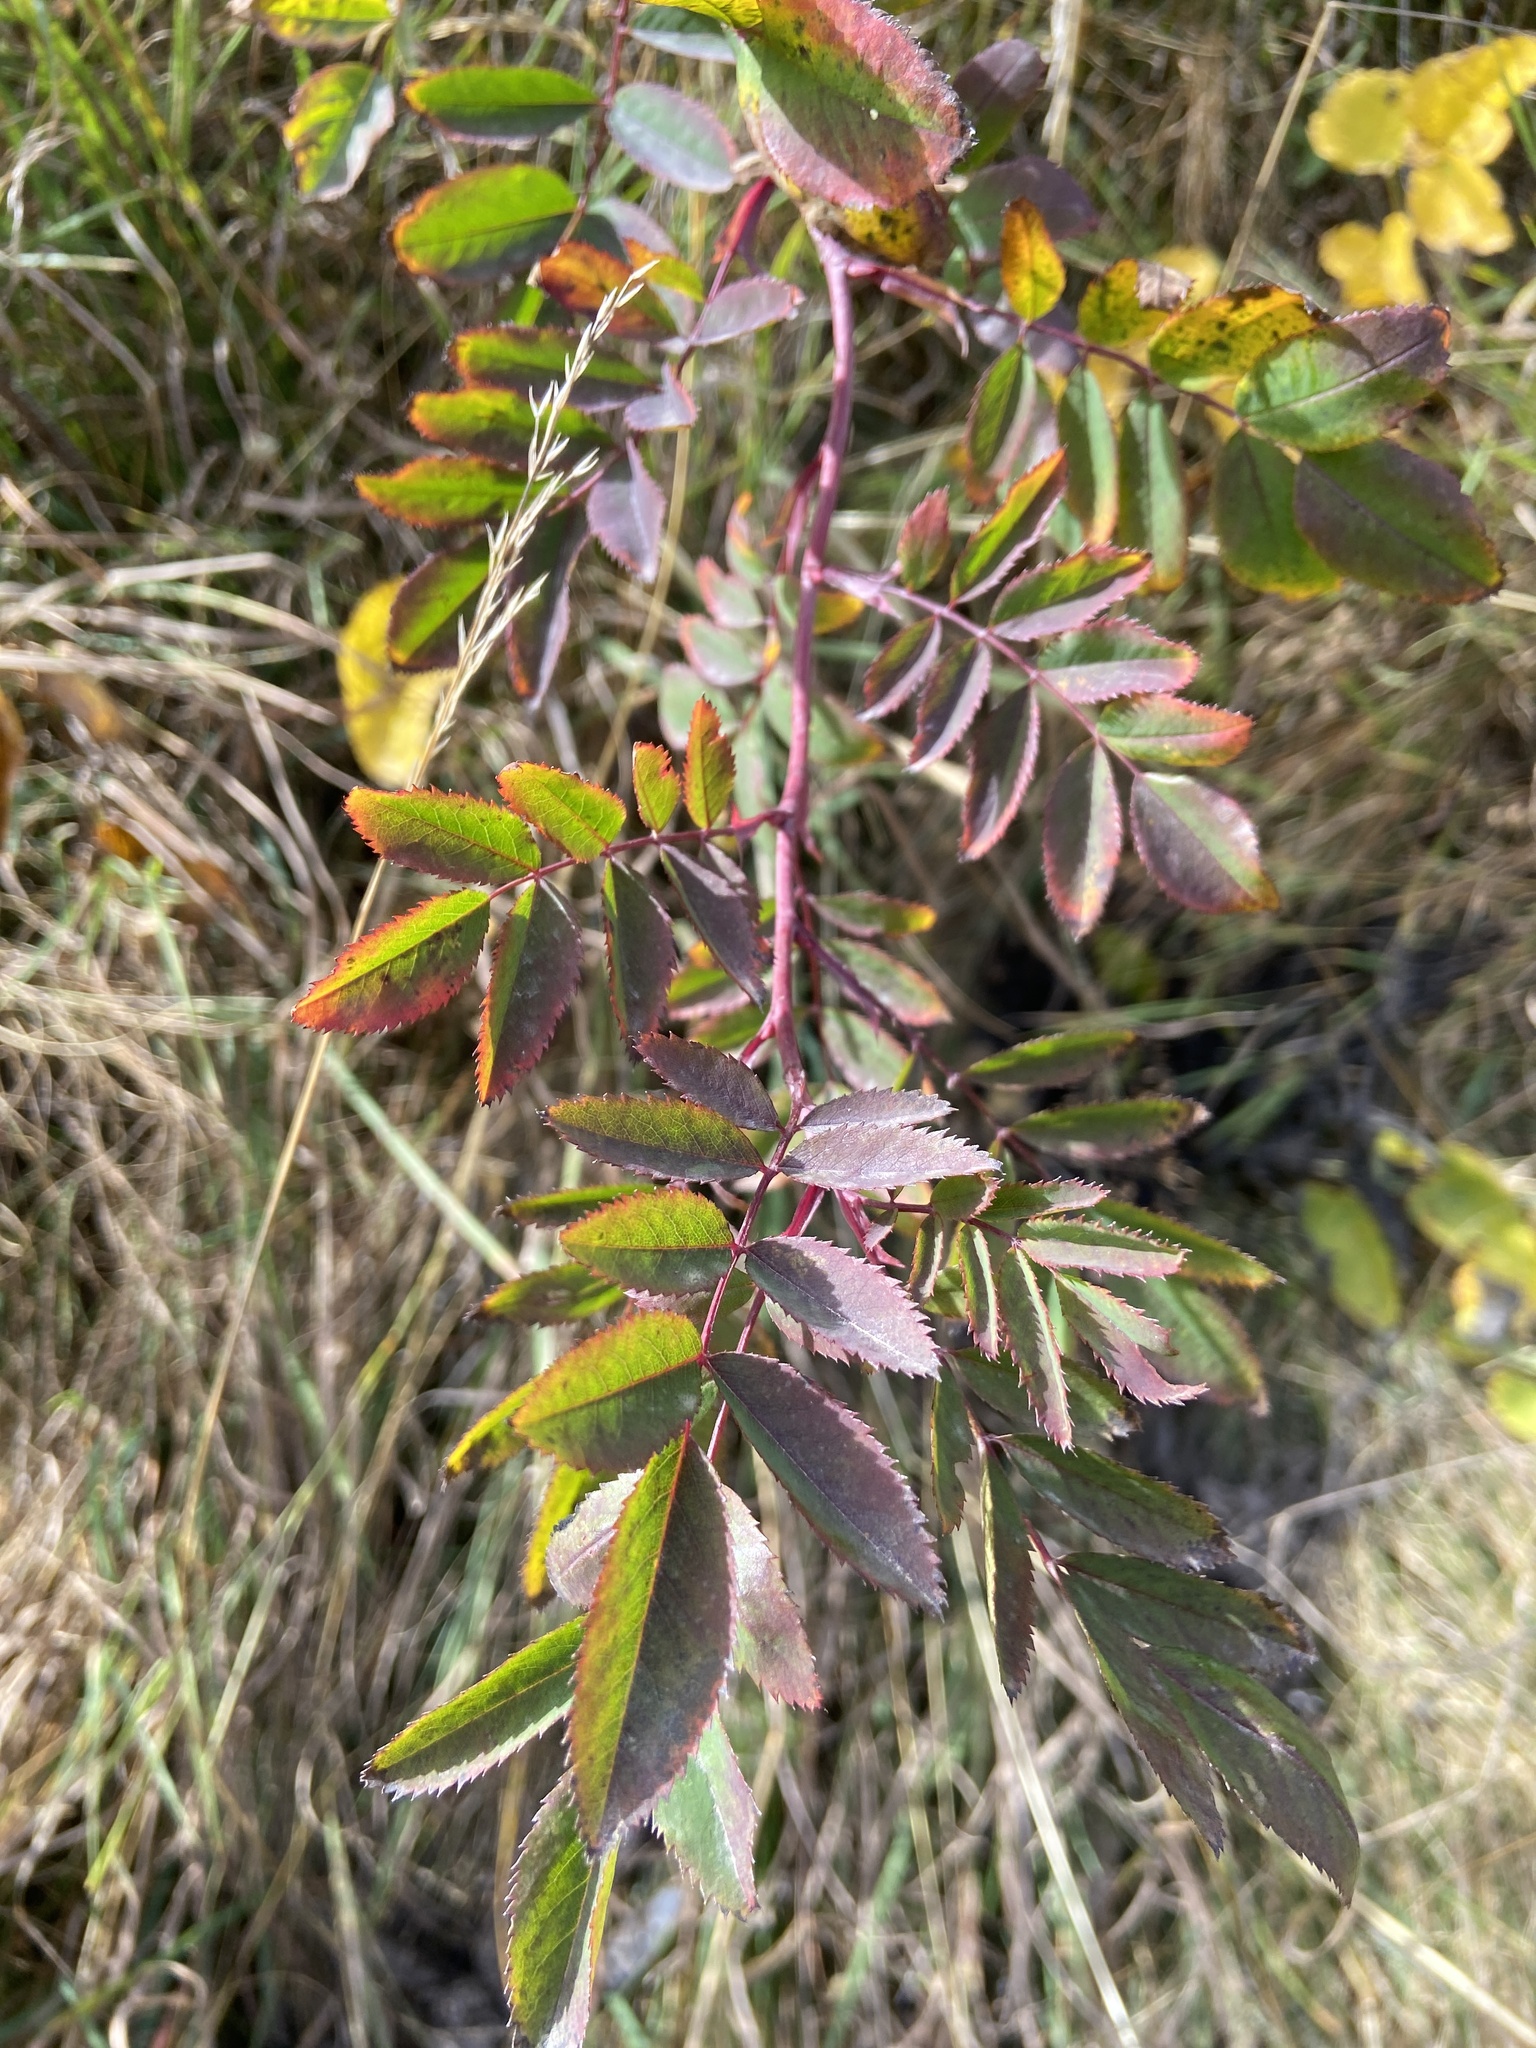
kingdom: Plantae
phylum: Tracheophyta
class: Magnoliopsida
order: Rosales
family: Rosaceae
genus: Rosa
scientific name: Rosa pendulina
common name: Alpine rose
